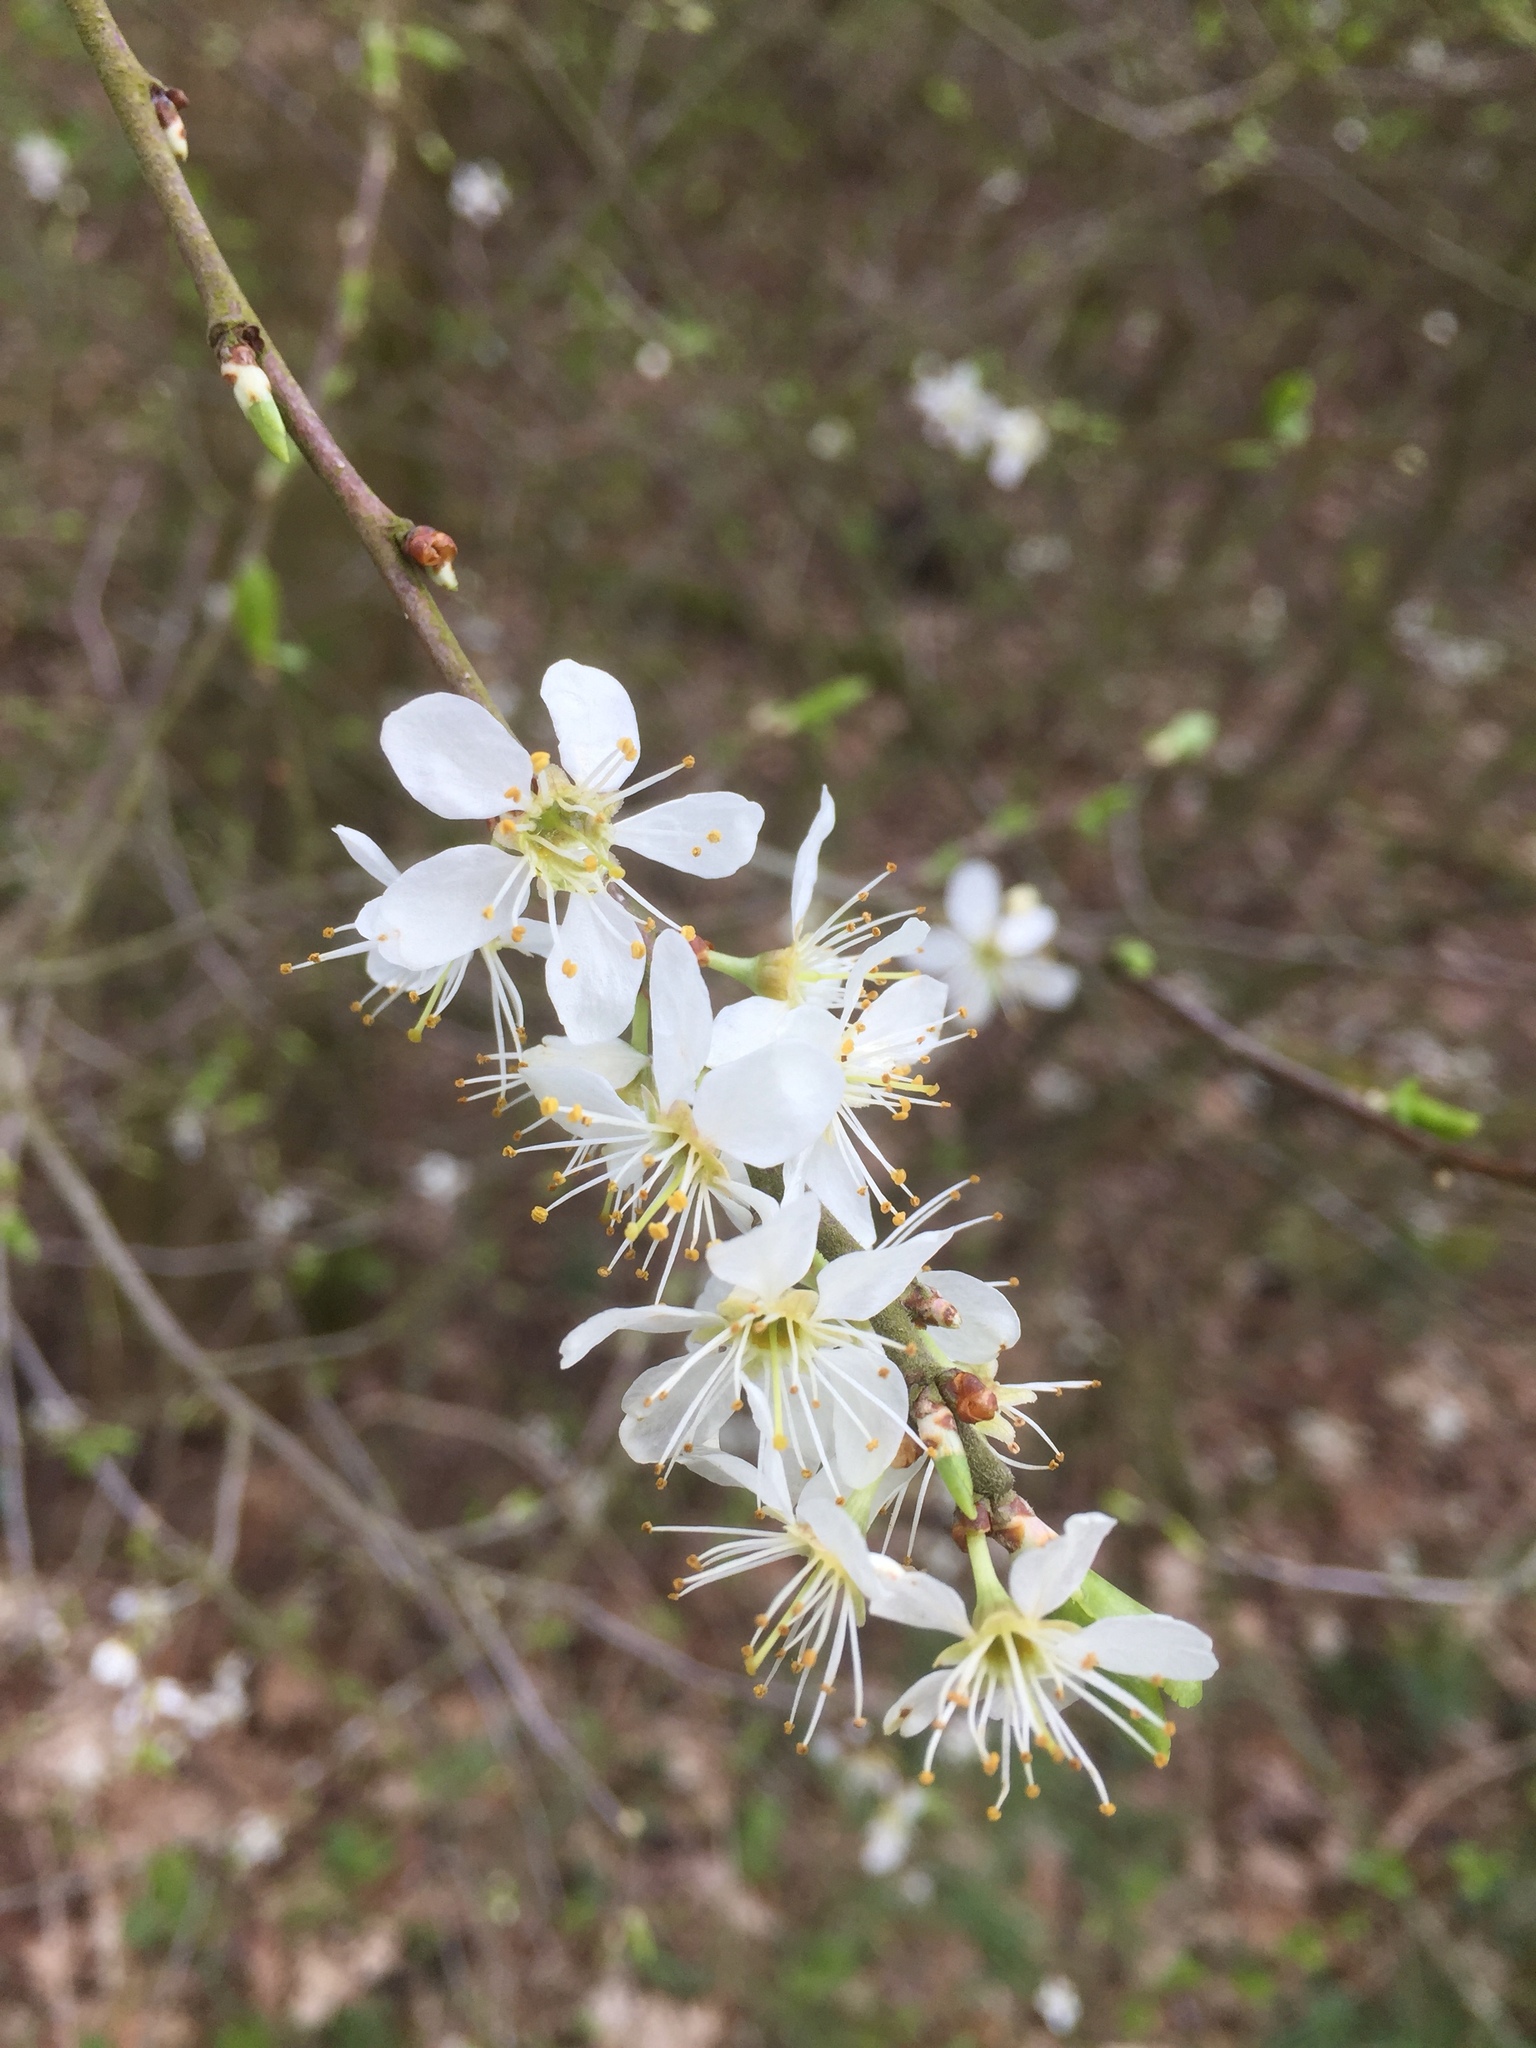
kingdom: Plantae
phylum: Tracheophyta
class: Magnoliopsida
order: Rosales
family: Rosaceae
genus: Prunus
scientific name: Prunus spinosa
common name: Blackthorn
